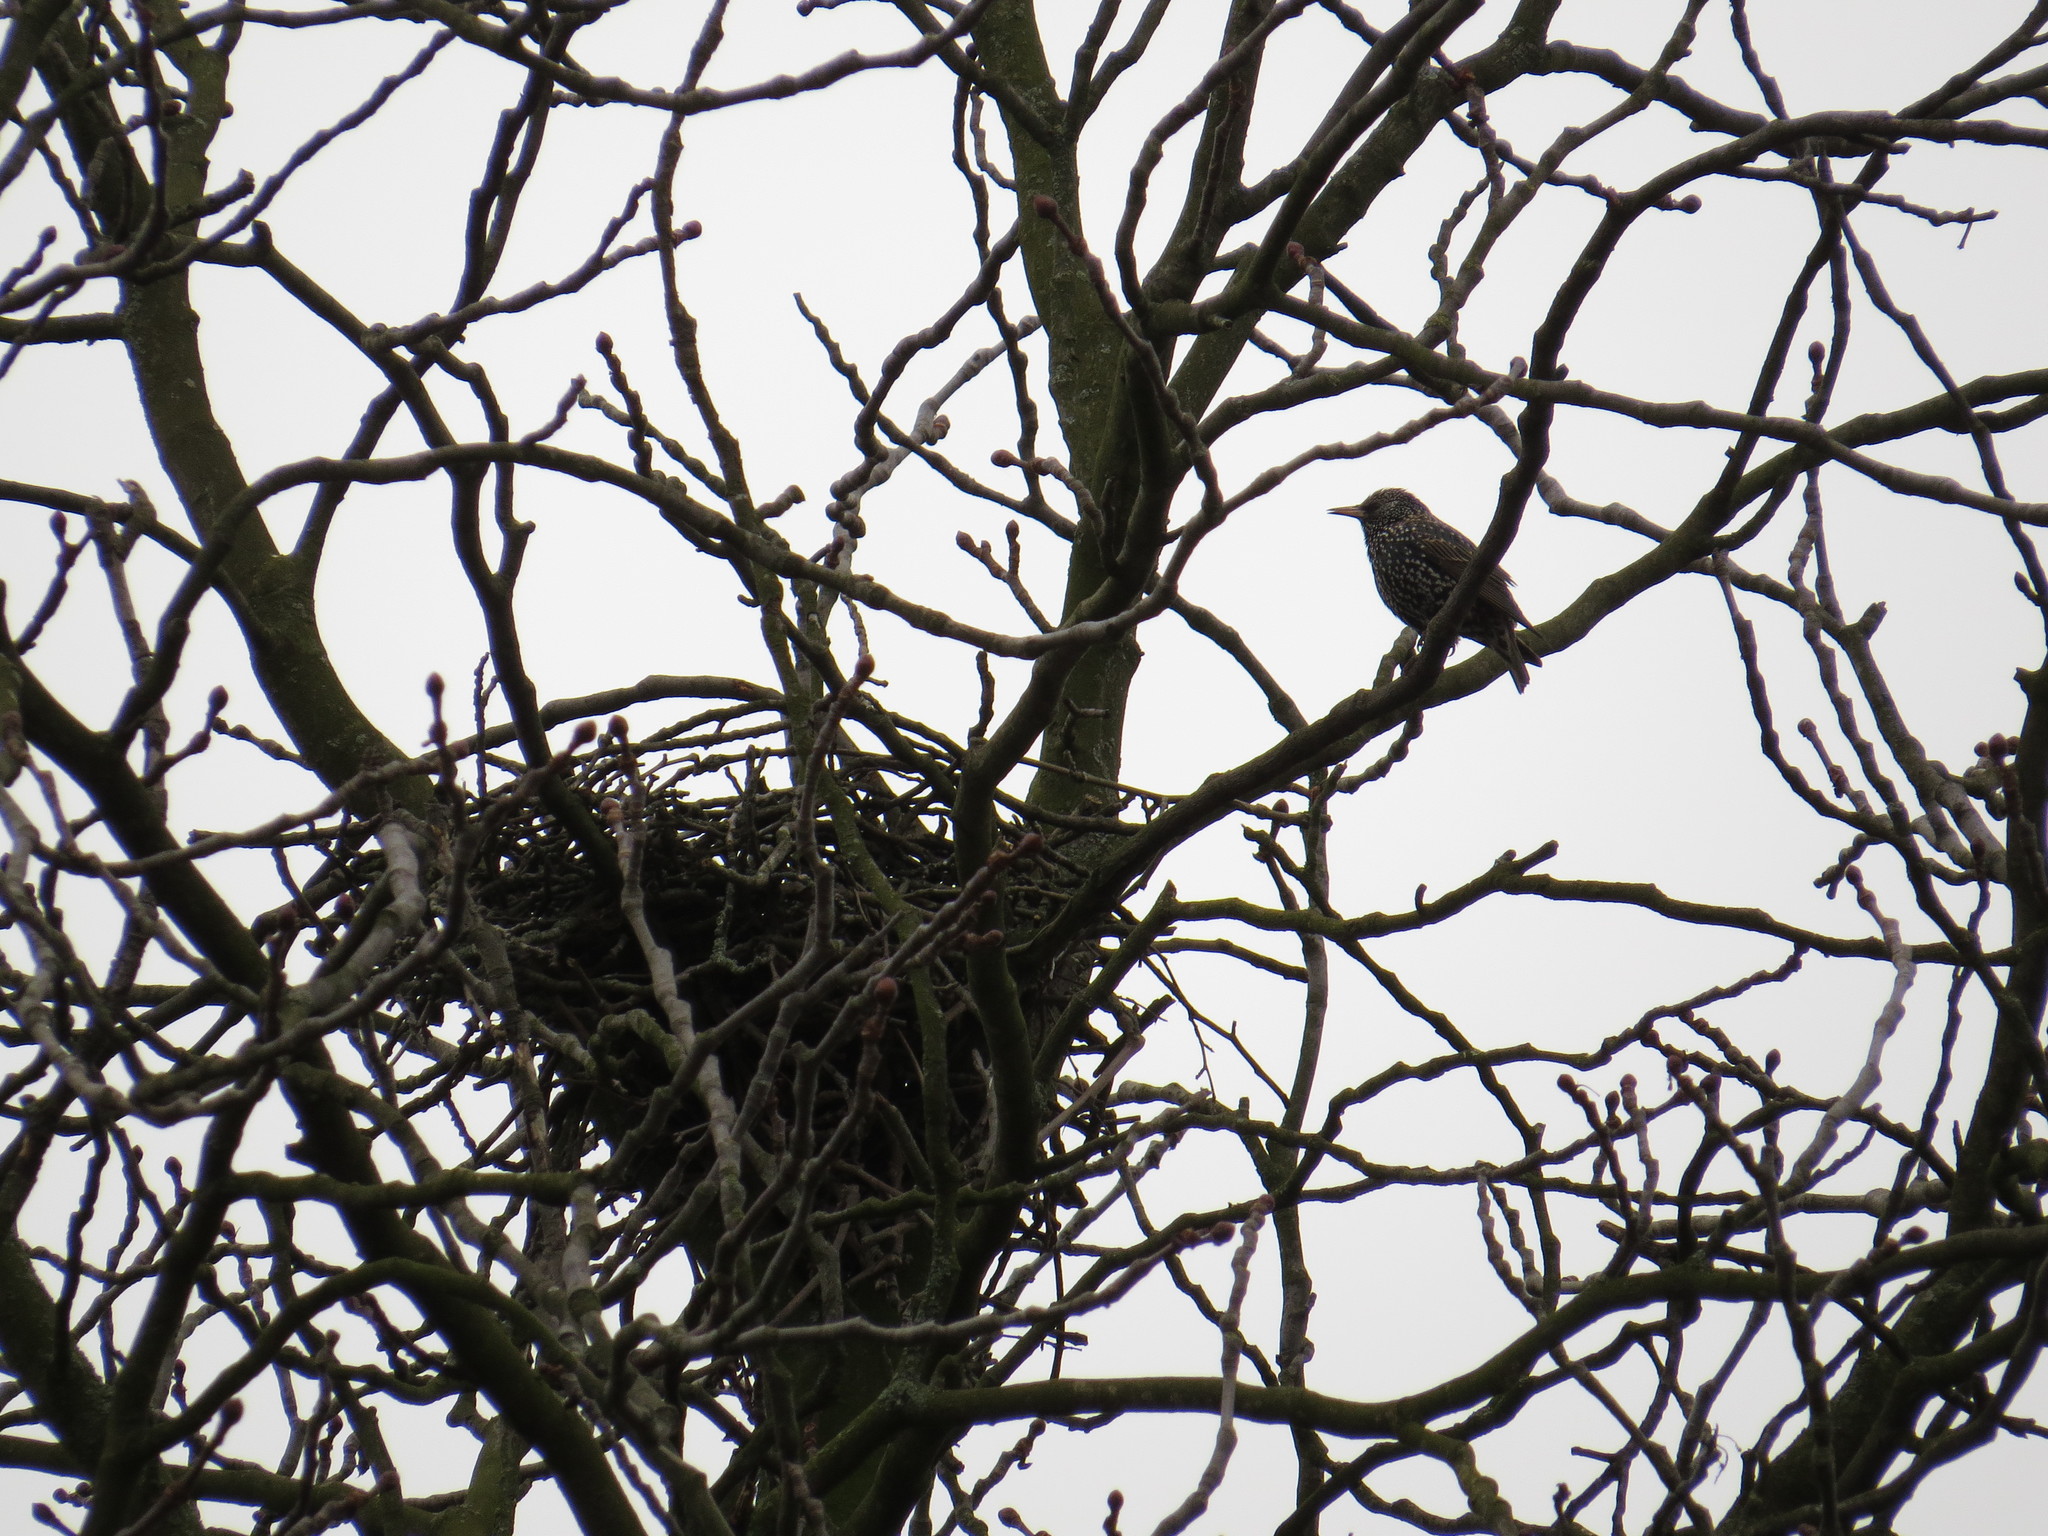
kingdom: Animalia
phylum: Chordata
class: Aves
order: Passeriformes
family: Sturnidae
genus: Sturnus
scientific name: Sturnus vulgaris
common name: Common starling
